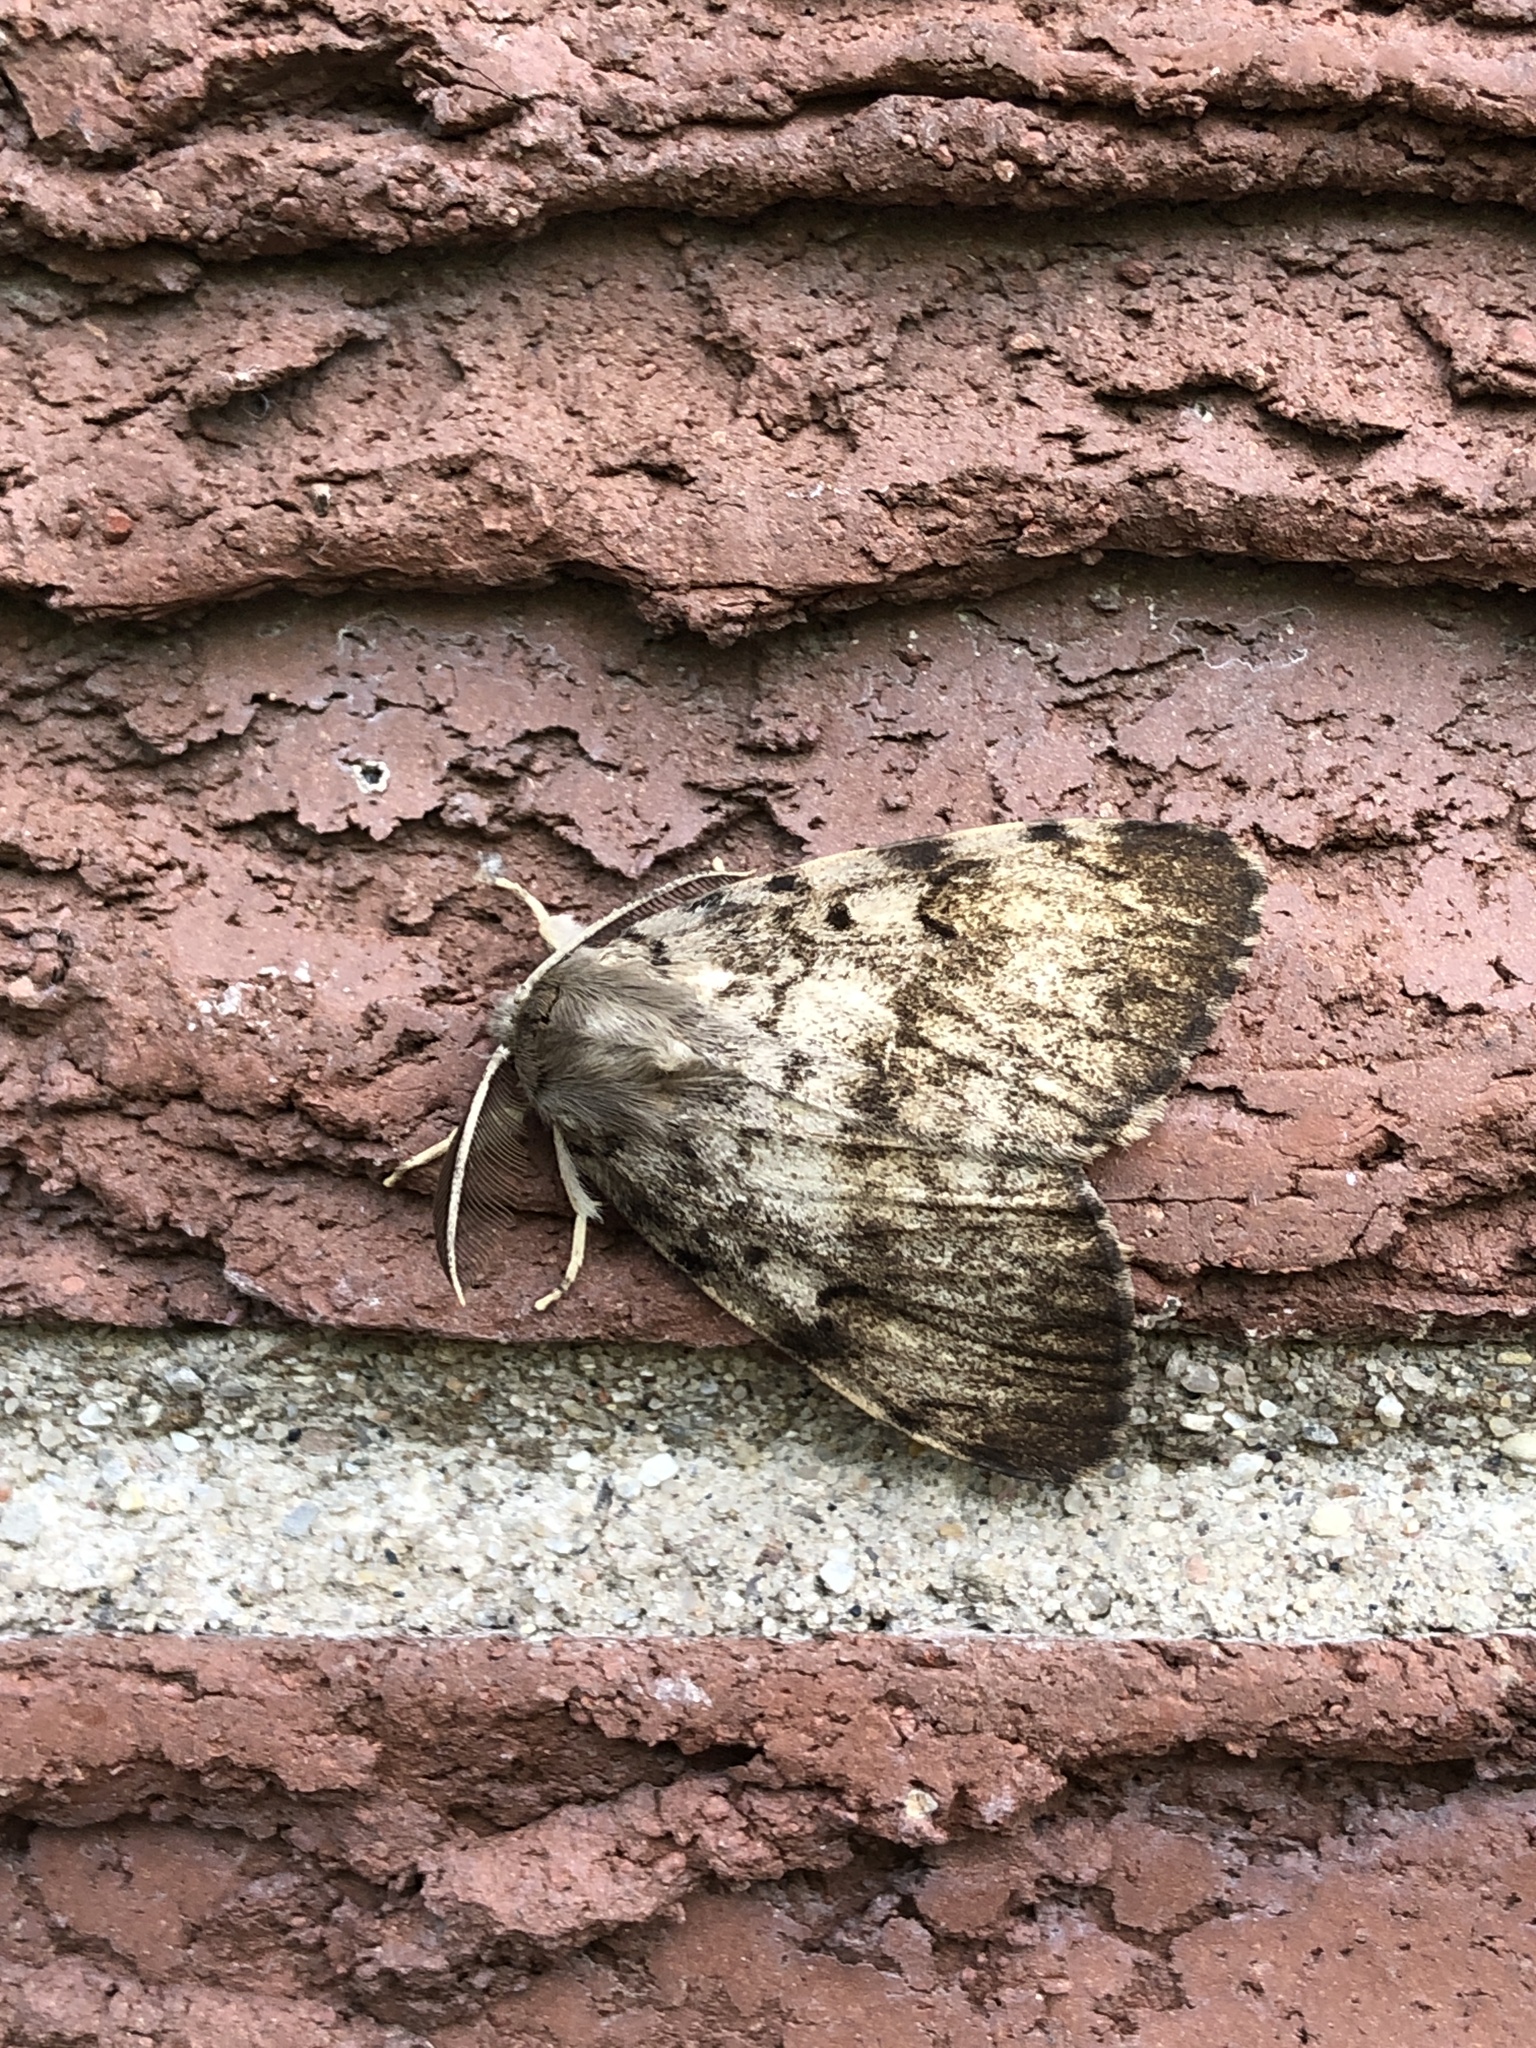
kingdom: Animalia
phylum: Arthropoda
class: Insecta
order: Lepidoptera
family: Erebidae
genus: Lymantria
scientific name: Lymantria dispar
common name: Gypsy moth
